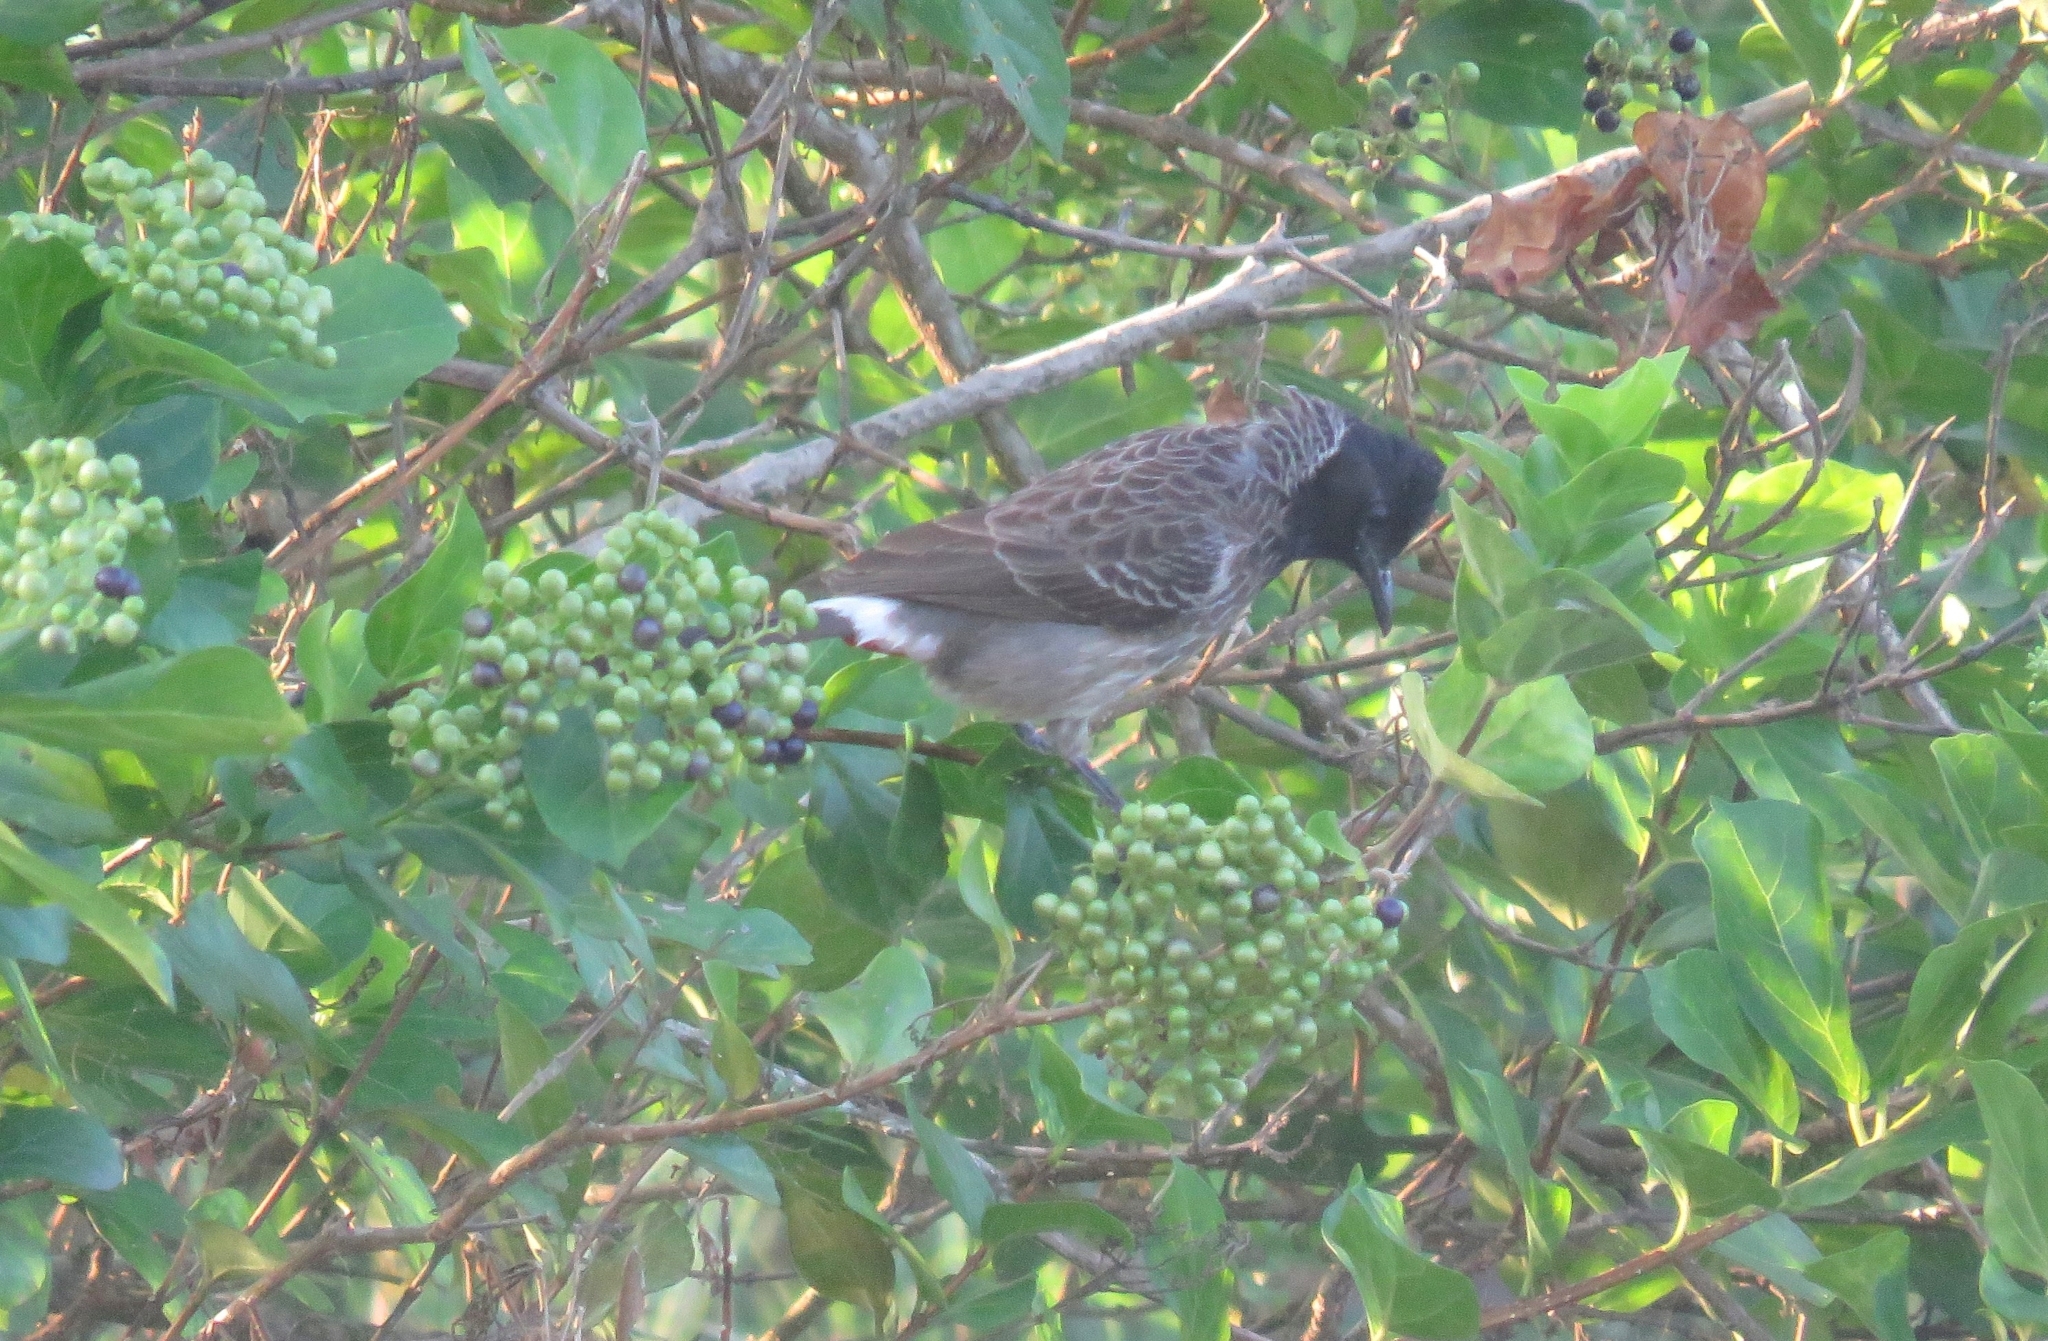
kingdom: Animalia
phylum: Chordata
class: Aves
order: Passeriformes
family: Pycnonotidae
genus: Pycnonotus
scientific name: Pycnonotus cafer
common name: Red-vented bulbul
